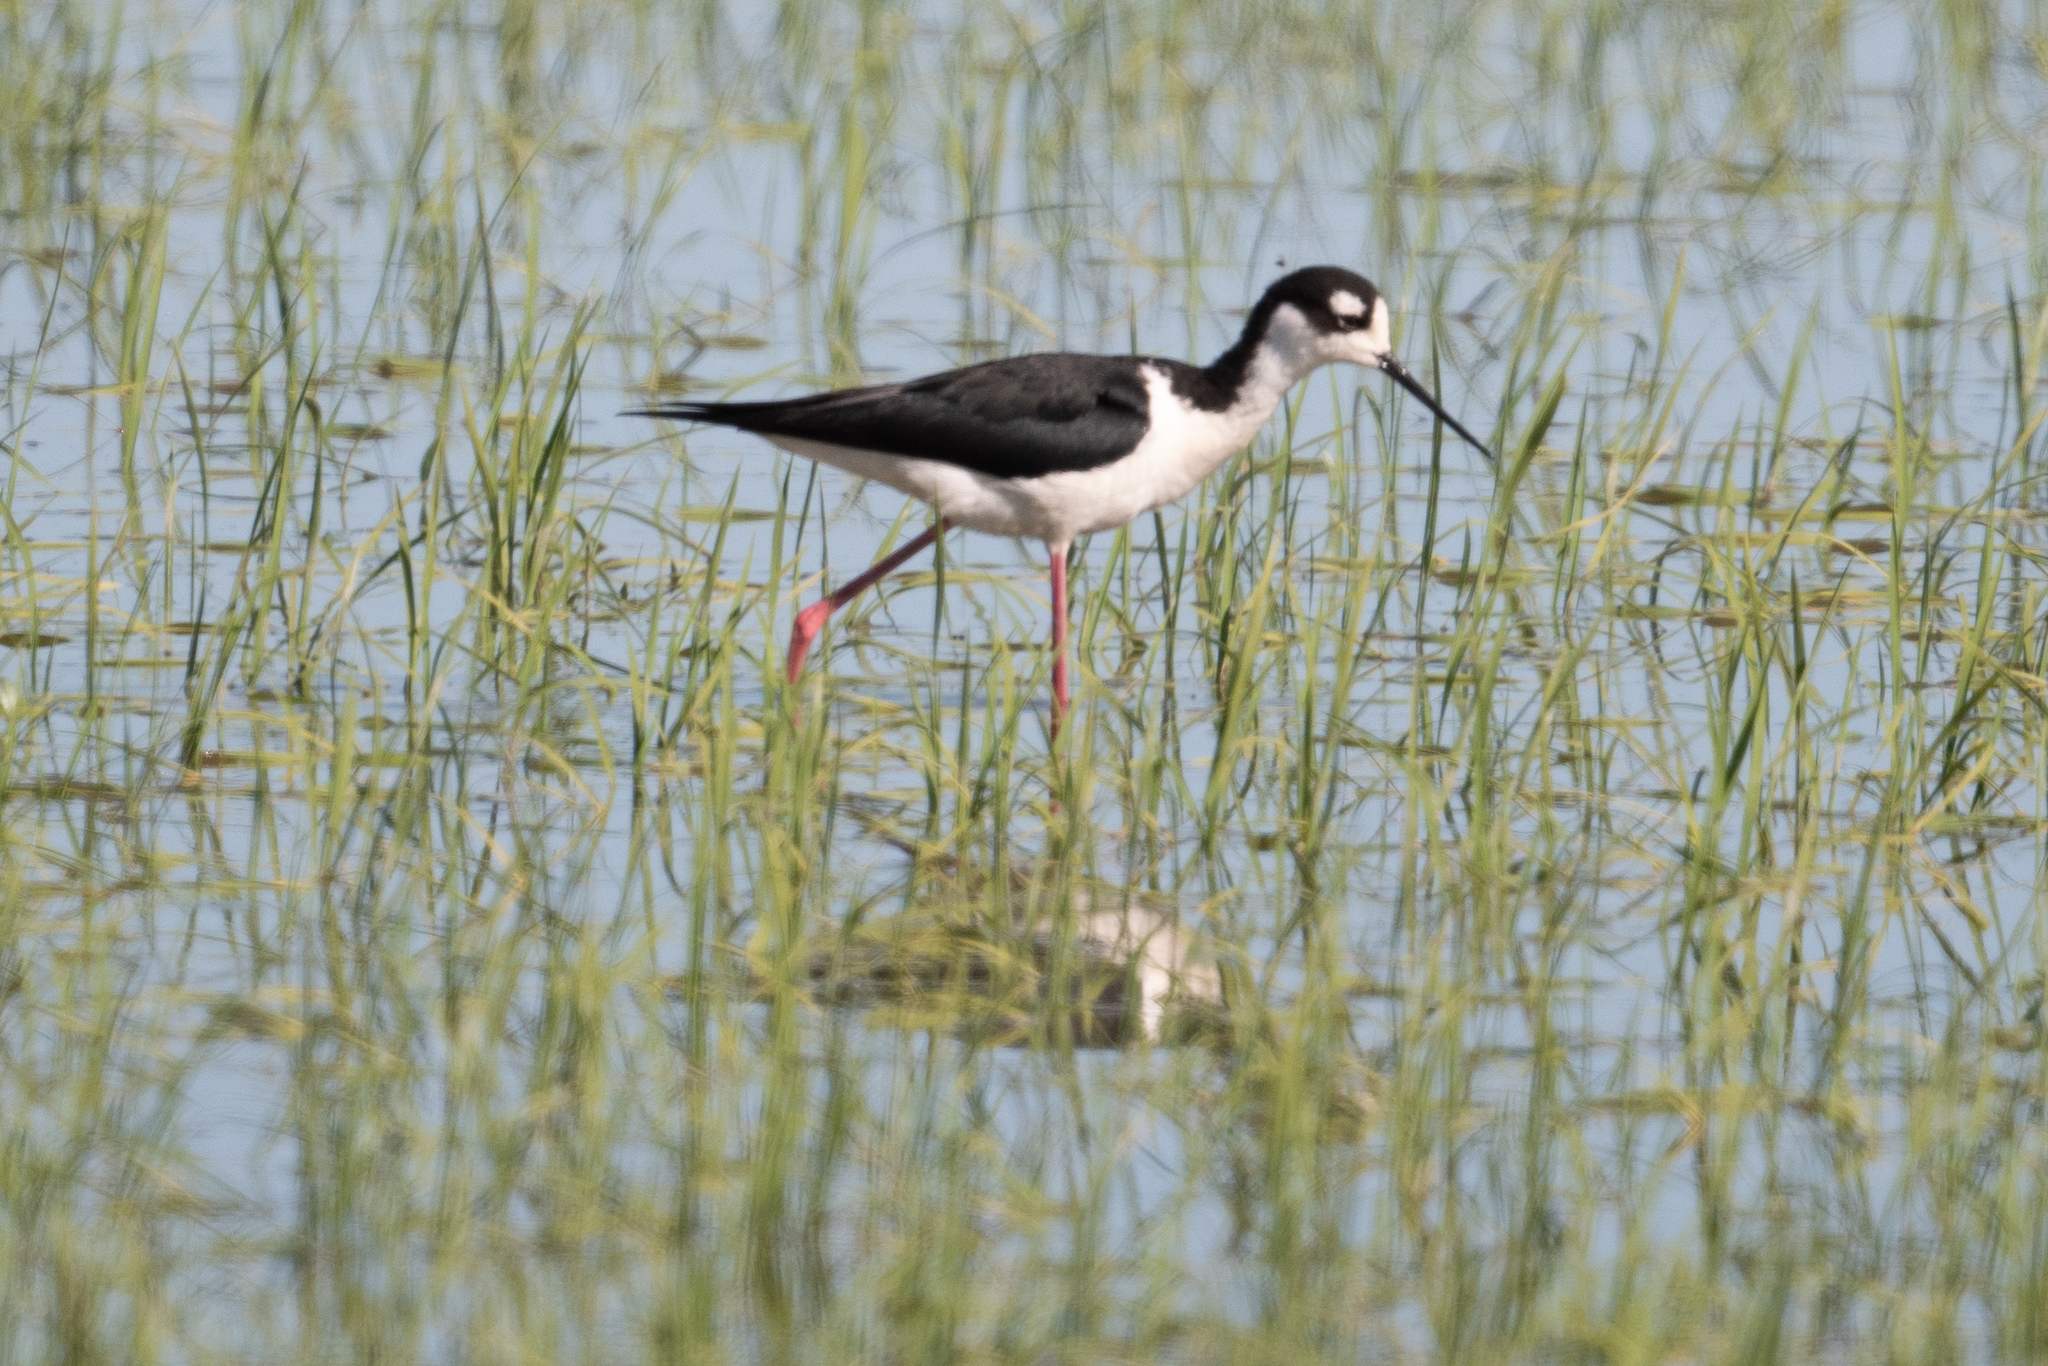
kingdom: Animalia
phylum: Chordata
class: Aves
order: Charadriiformes
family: Recurvirostridae
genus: Himantopus
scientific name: Himantopus mexicanus
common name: Black-necked stilt
